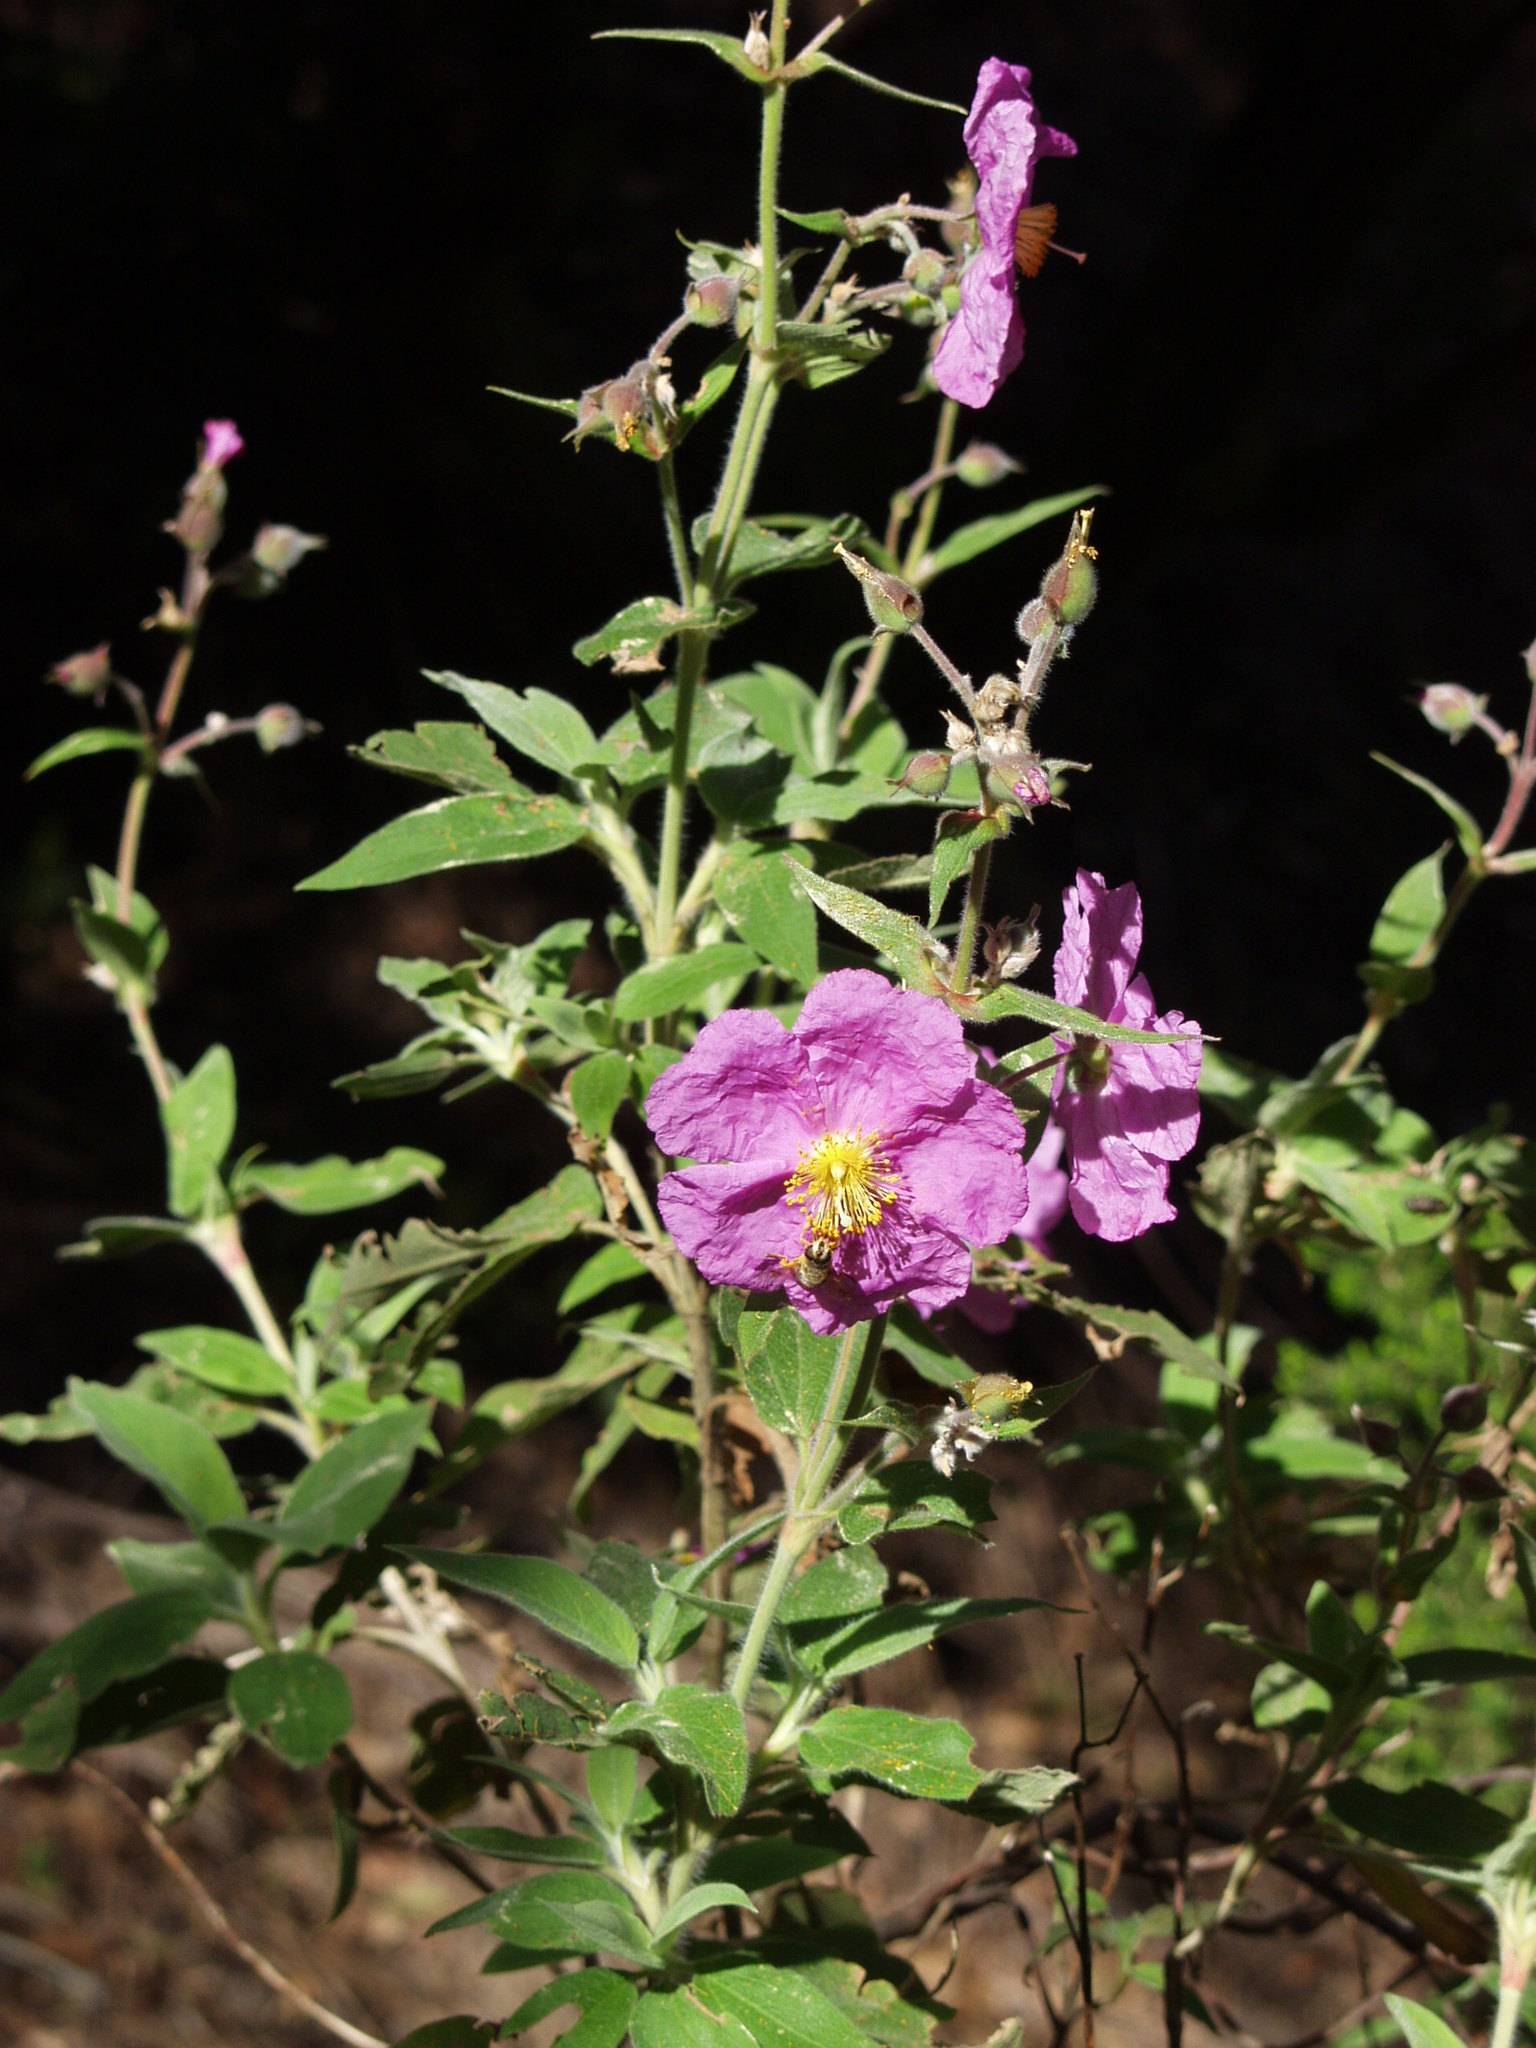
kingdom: Plantae
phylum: Tracheophyta
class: Magnoliopsida
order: Malvales
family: Cistaceae
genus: Cistus
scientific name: Cistus symphytifolius
